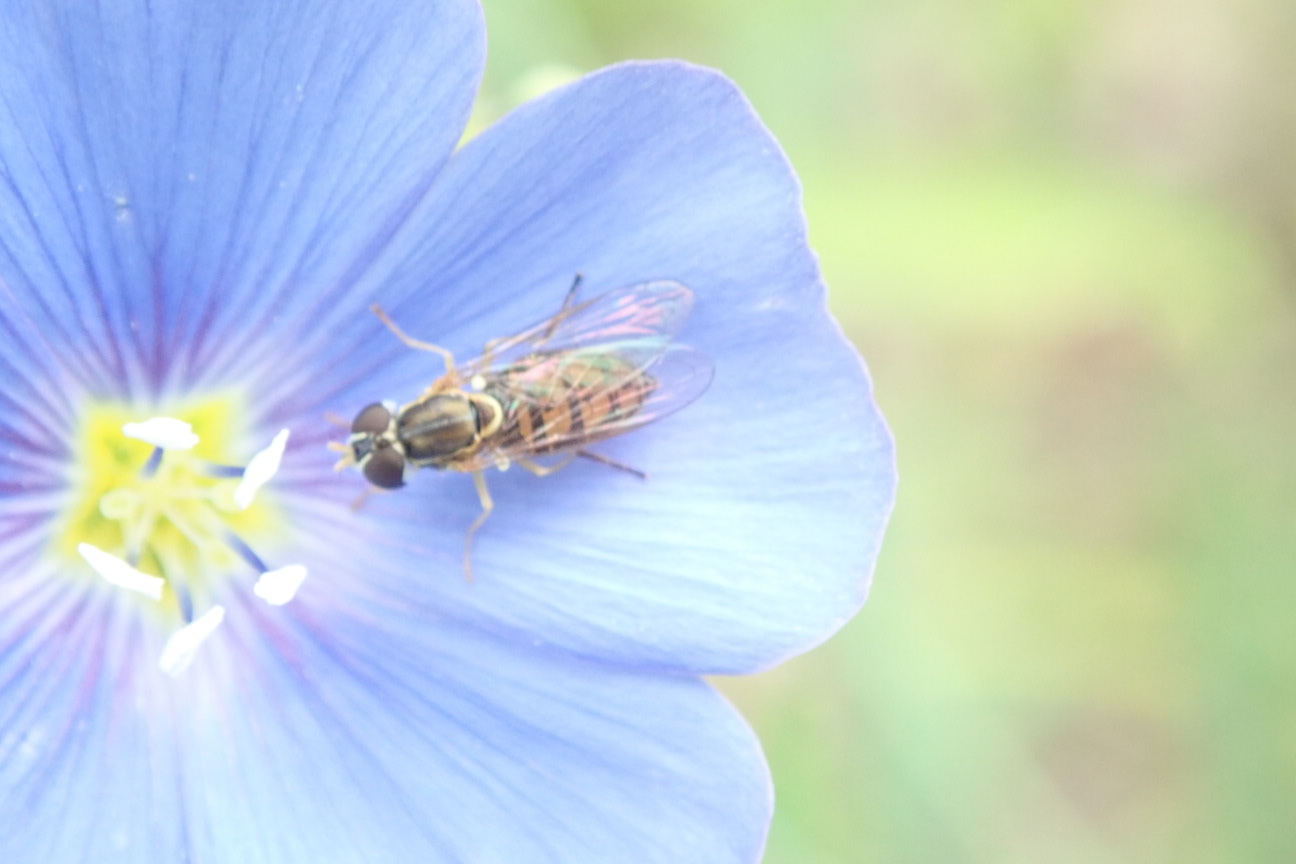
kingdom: Animalia
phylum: Arthropoda
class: Insecta
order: Diptera
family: Syrphidae
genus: Toxomerus
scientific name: Toxomerus marginatus
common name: Syrphid fly
